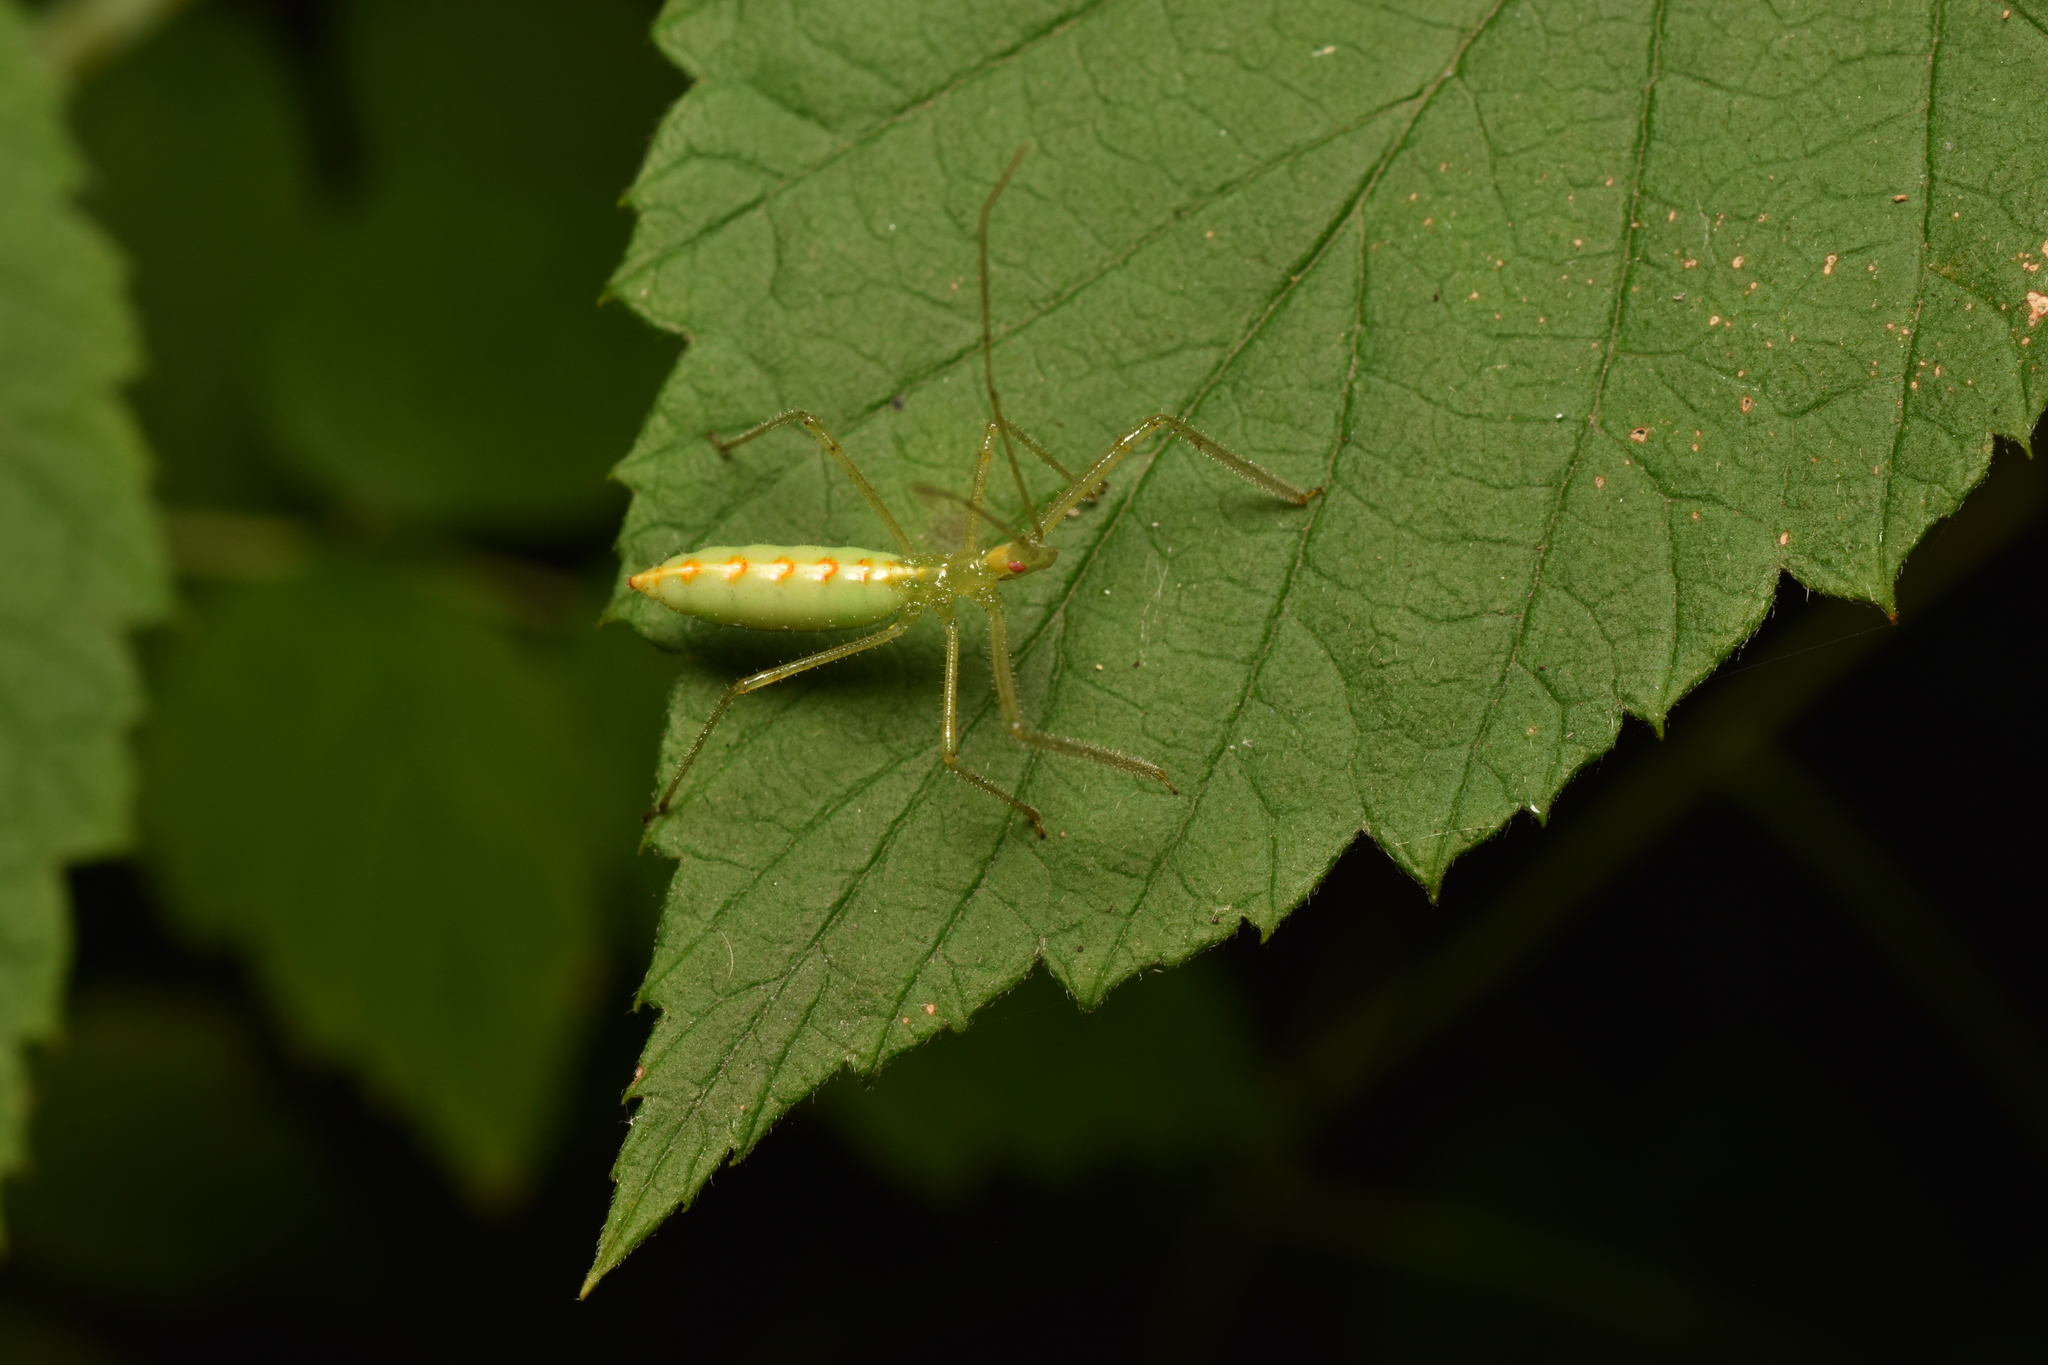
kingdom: Animalia
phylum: Arthropoda
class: Insecta
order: Hemiptera
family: Reduviidae
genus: Zelus
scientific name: Zelus luridus
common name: Pale green assassin bug
